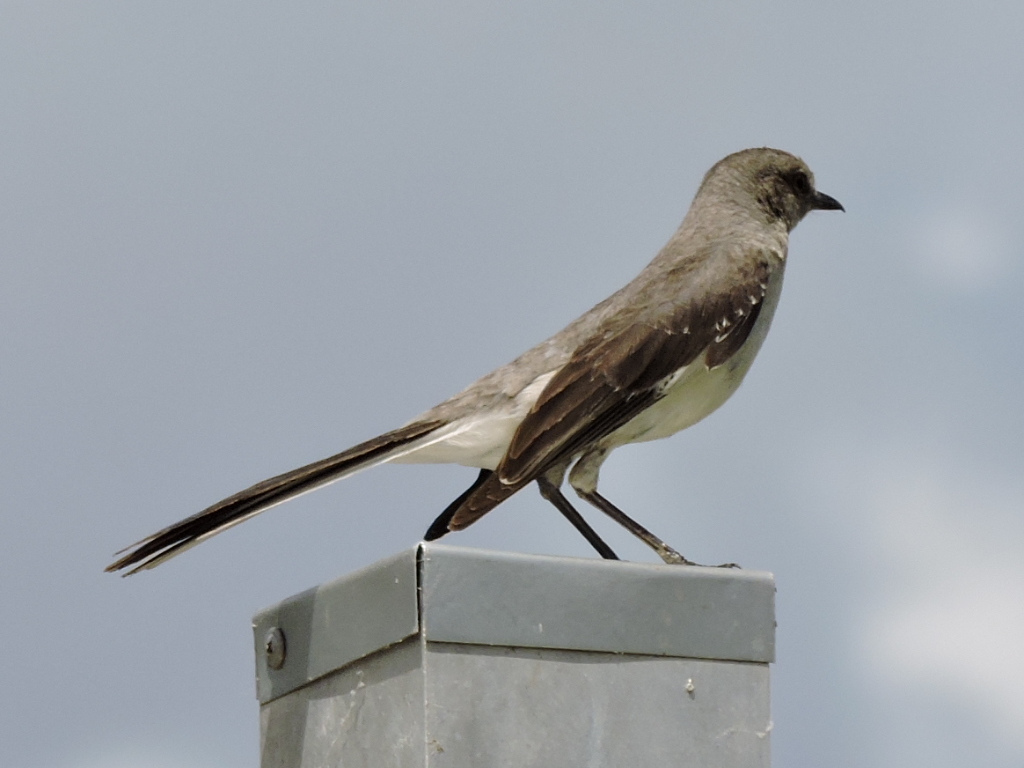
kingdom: Animalia
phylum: Chordata
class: Aves
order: Passeriformes
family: Mimidae
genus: Mimus
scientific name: Mimus polyglottos
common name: Northern mockingbird
